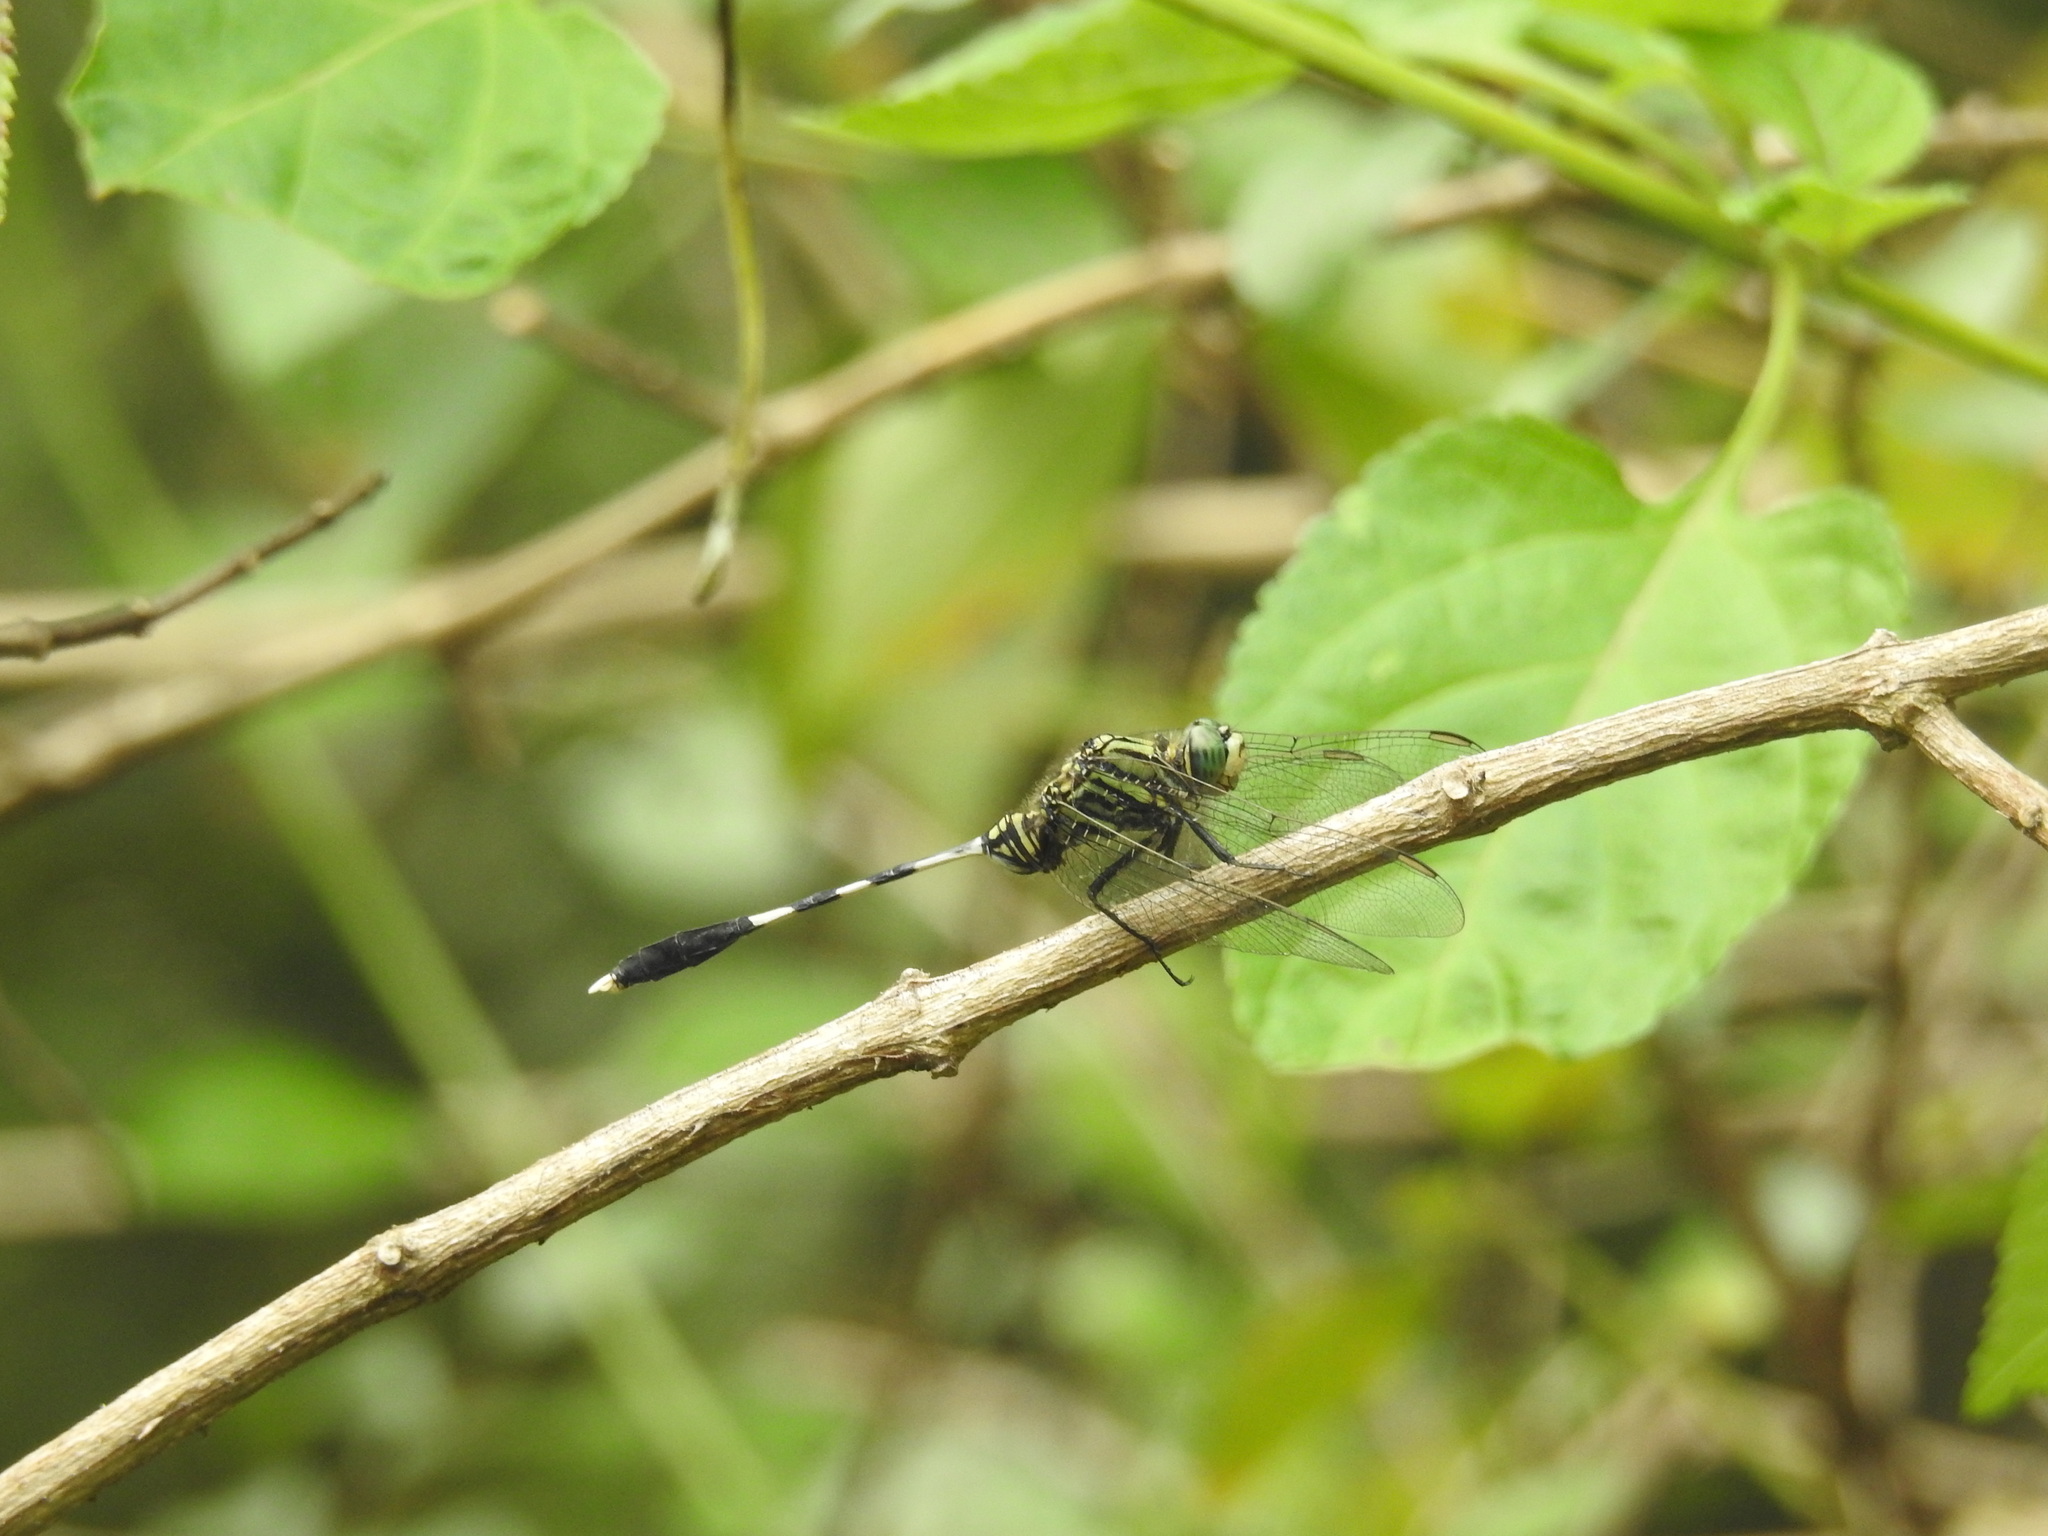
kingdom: Animalia
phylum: Arthropoda
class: Insecta
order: Odonata
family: Libellulidae
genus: Orthetrum
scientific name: Orthetrum sabina
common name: Slender skimmer
